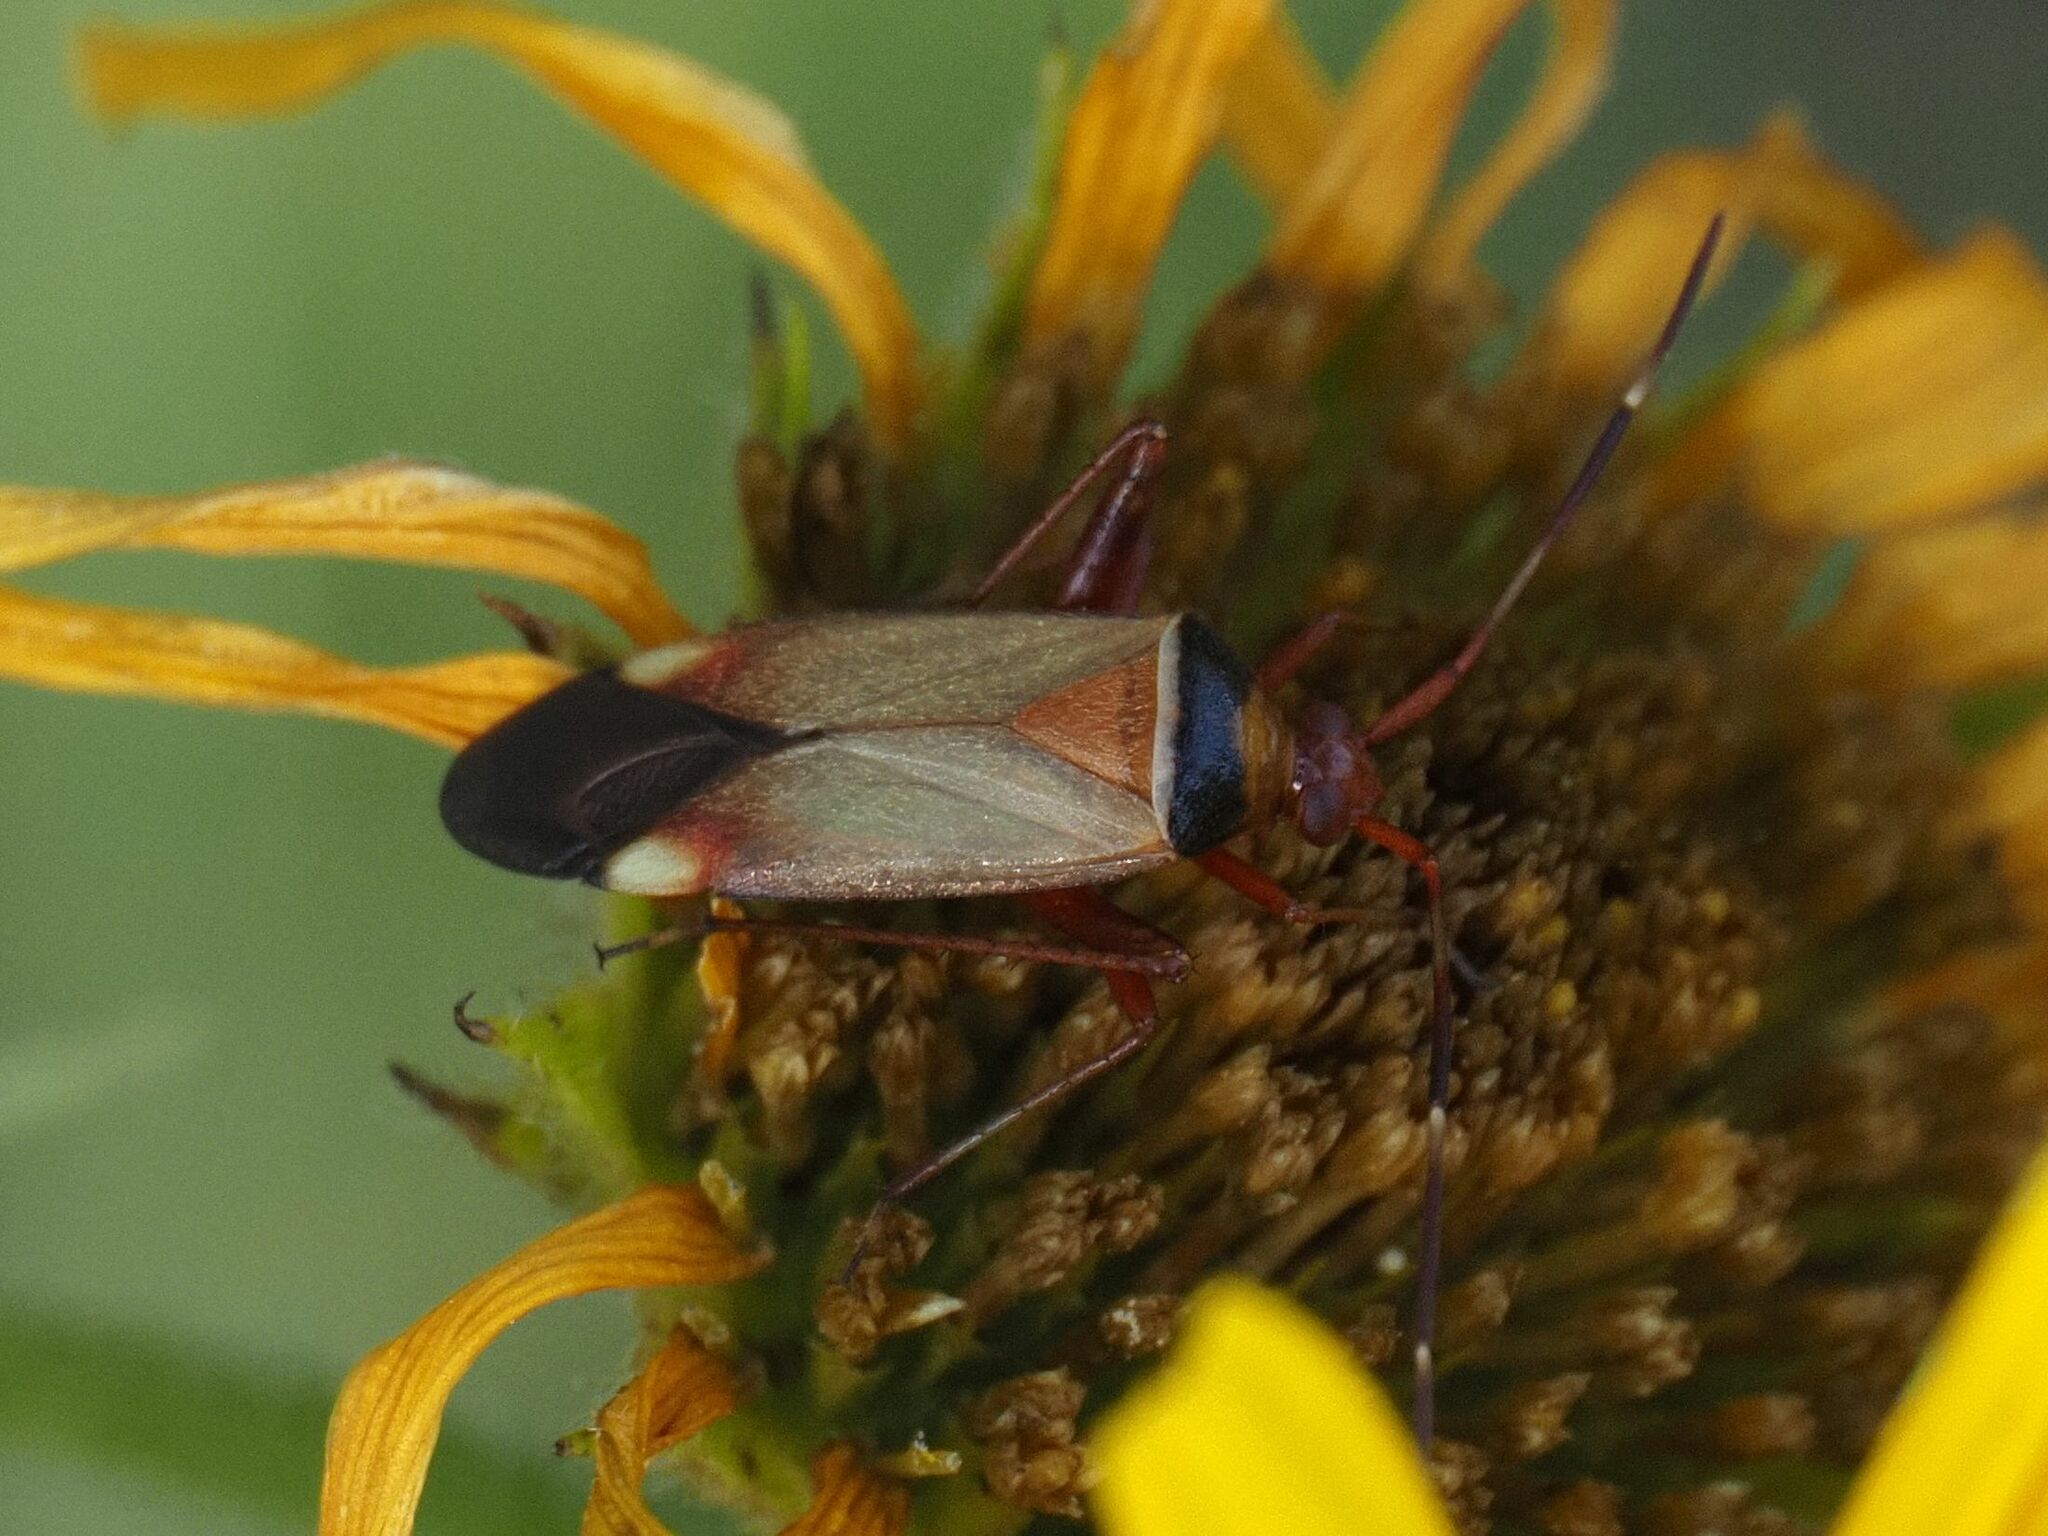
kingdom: Animalia
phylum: Arthropoda
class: Insecta
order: Hemiptera
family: Miridae
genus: Adelphocoris
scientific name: Adelphocoris vandalicus
